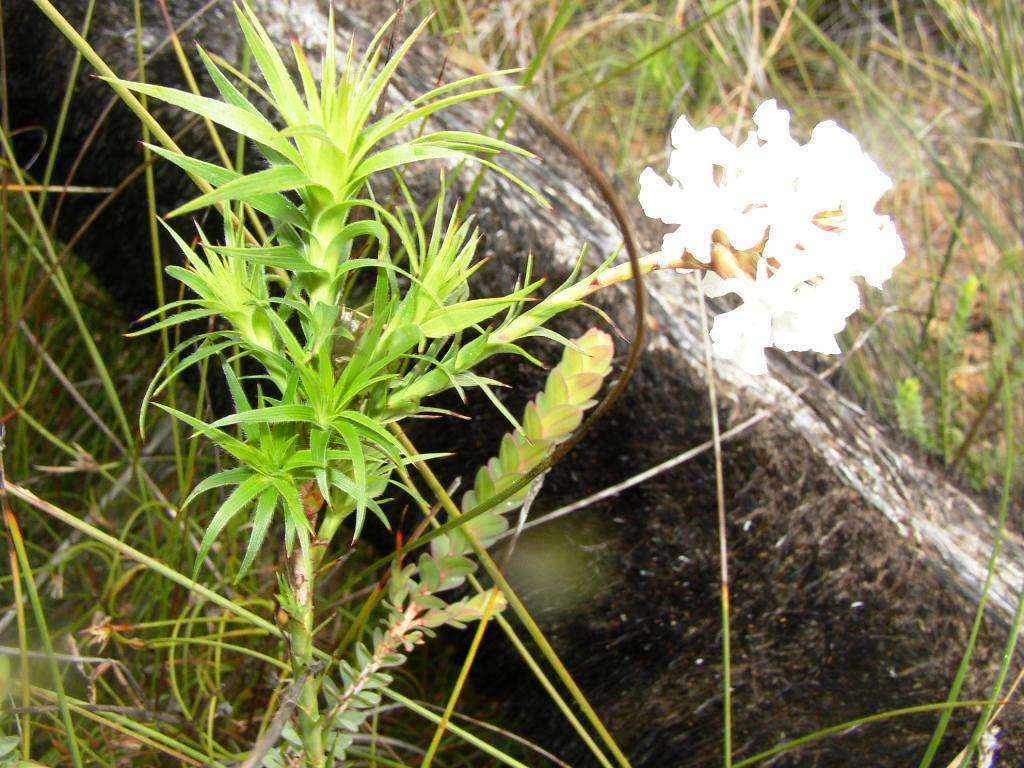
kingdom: Plantae
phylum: Tracheophyta
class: Magnoliopsida
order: Ericales
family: Ericaceae
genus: Sphenotoma
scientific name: Sphenotoma capitatum
